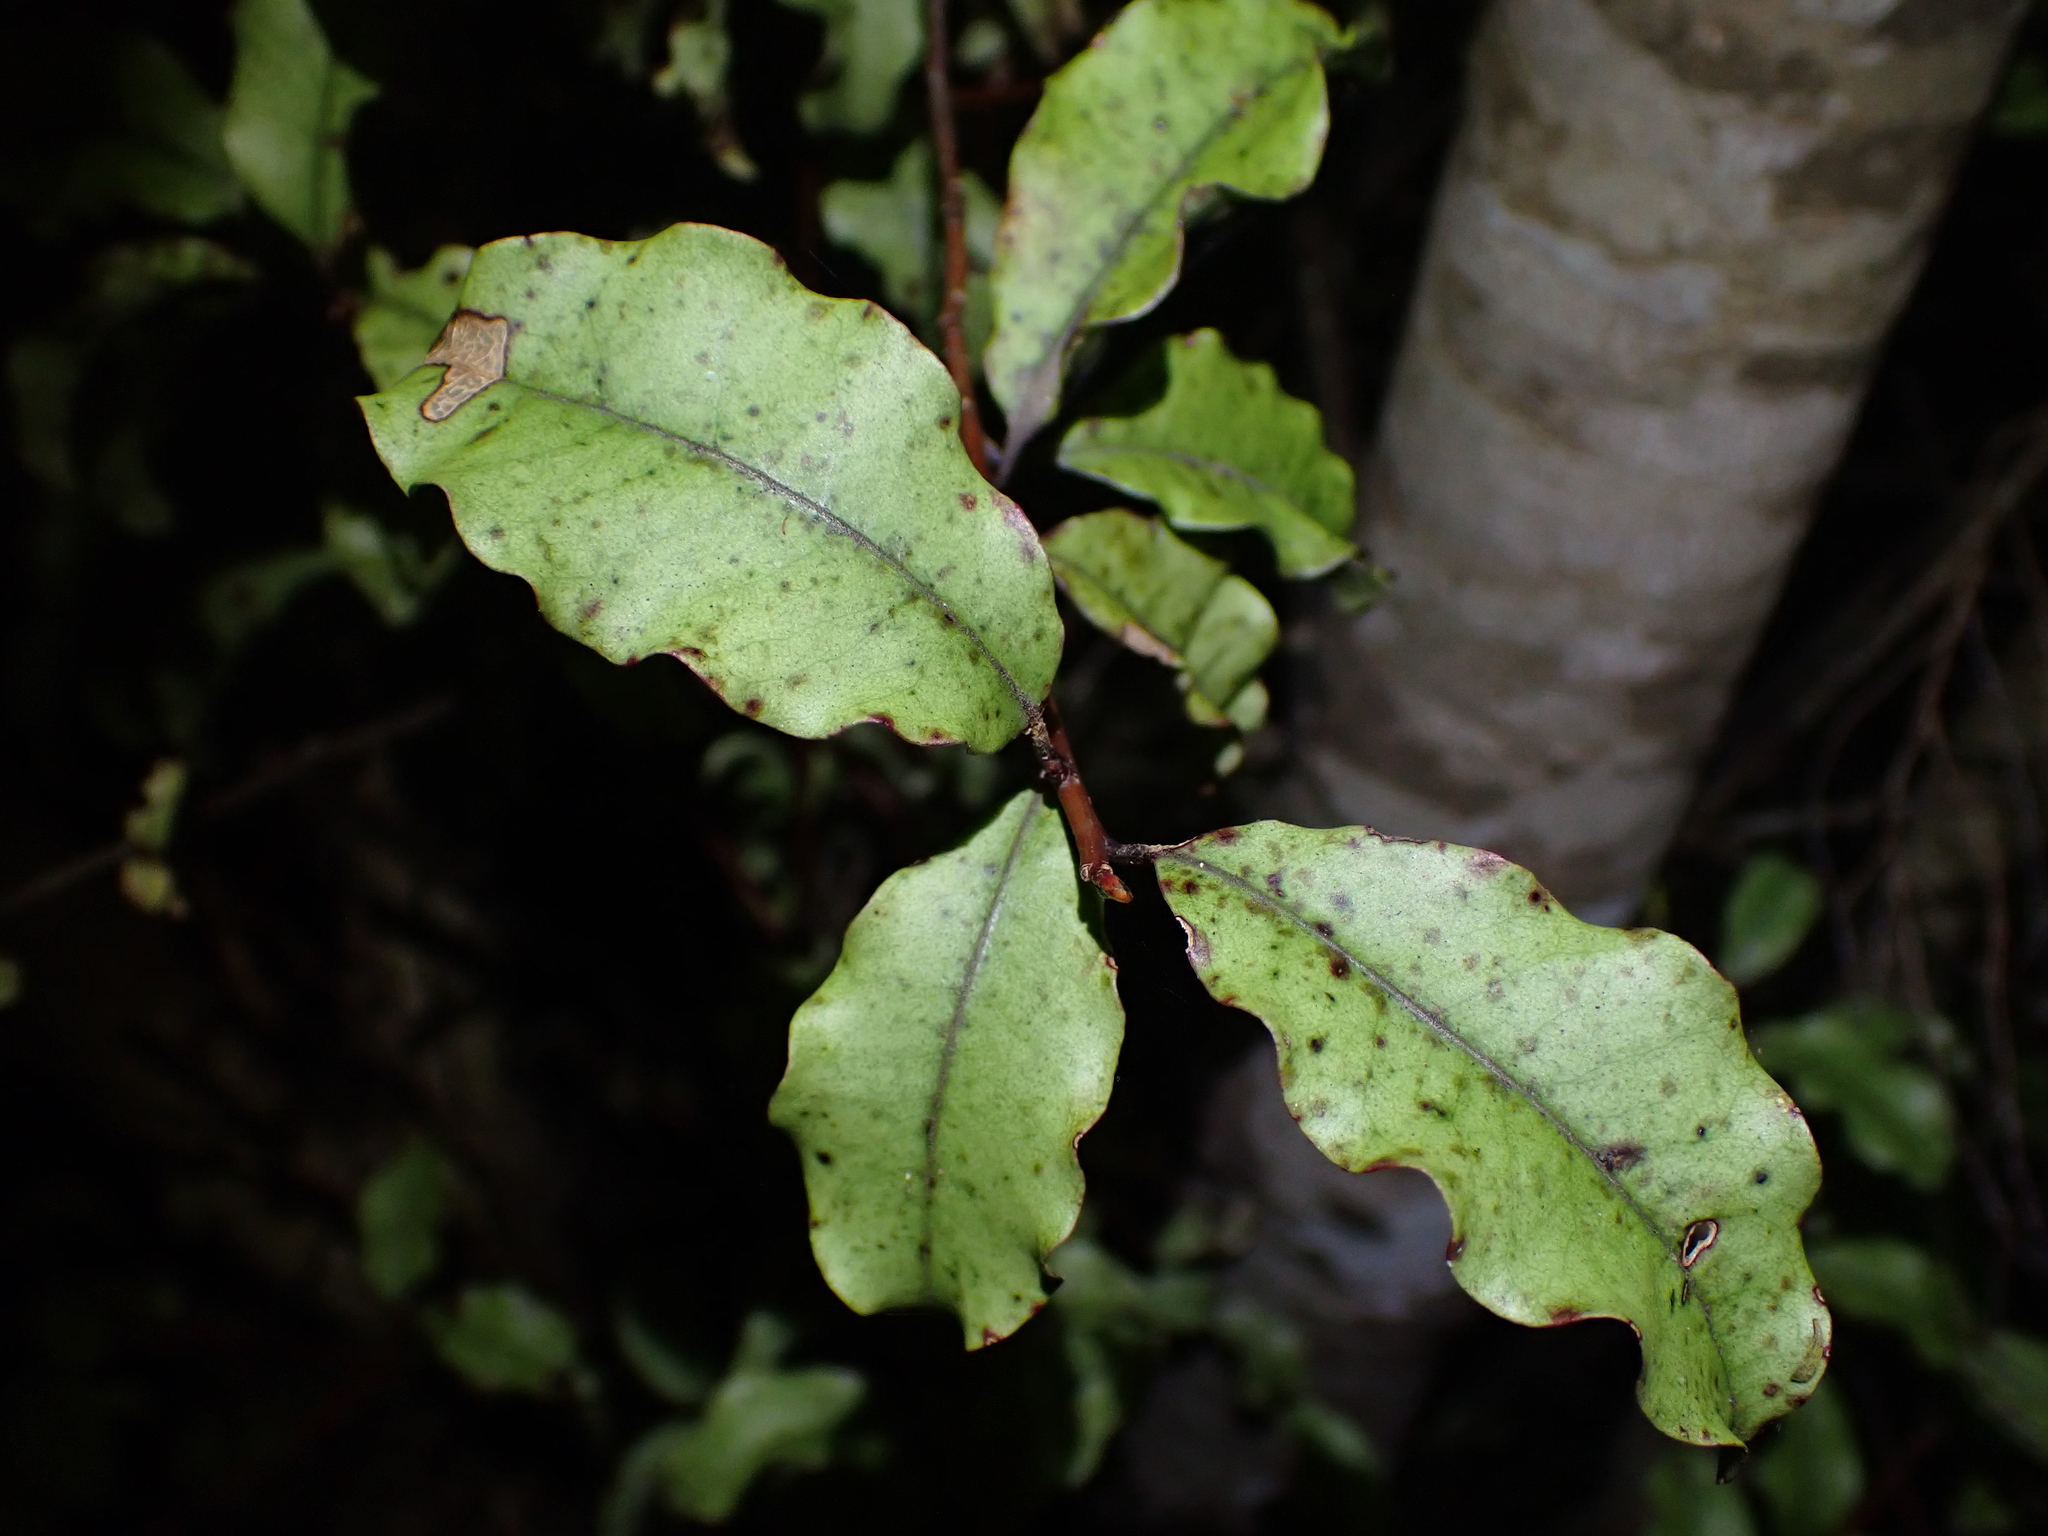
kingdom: Plantae
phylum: Tracheophyta
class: Magnoliopsida
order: Ericales
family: Primulaceae
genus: Myrsine
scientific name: Myrsine australis
